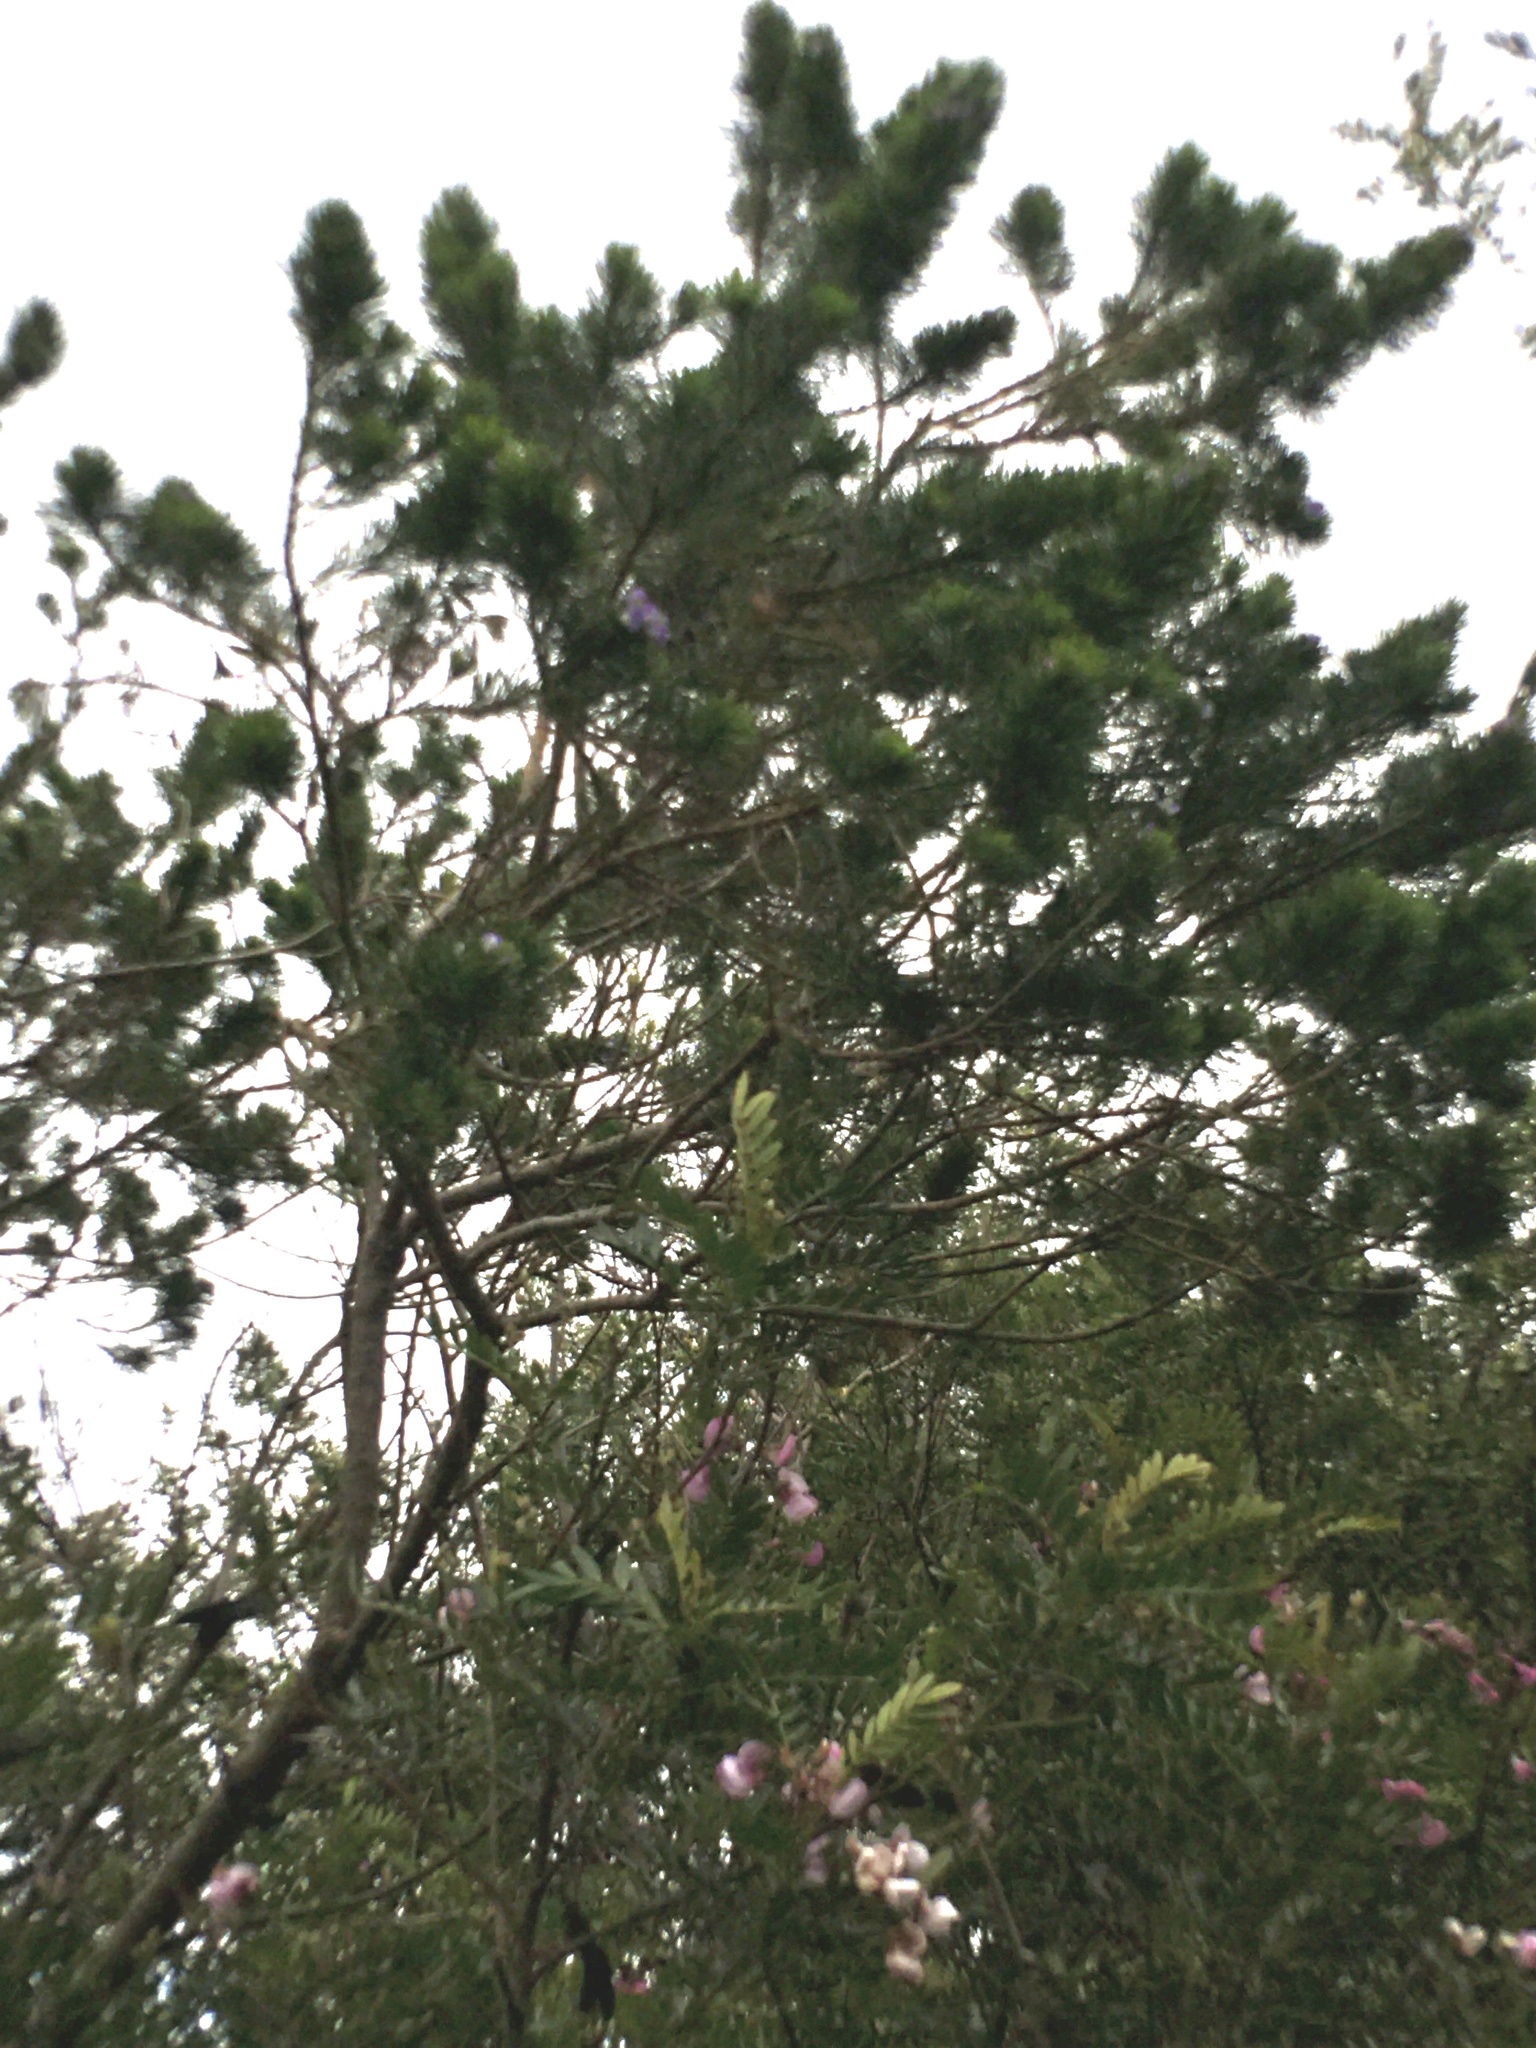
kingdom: Plantae
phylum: Tracheophyta
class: Magnoliopsida
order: Fabales
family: Fabaceae
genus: Psoralea
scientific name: Psoralea pinnata
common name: African scurfpea
